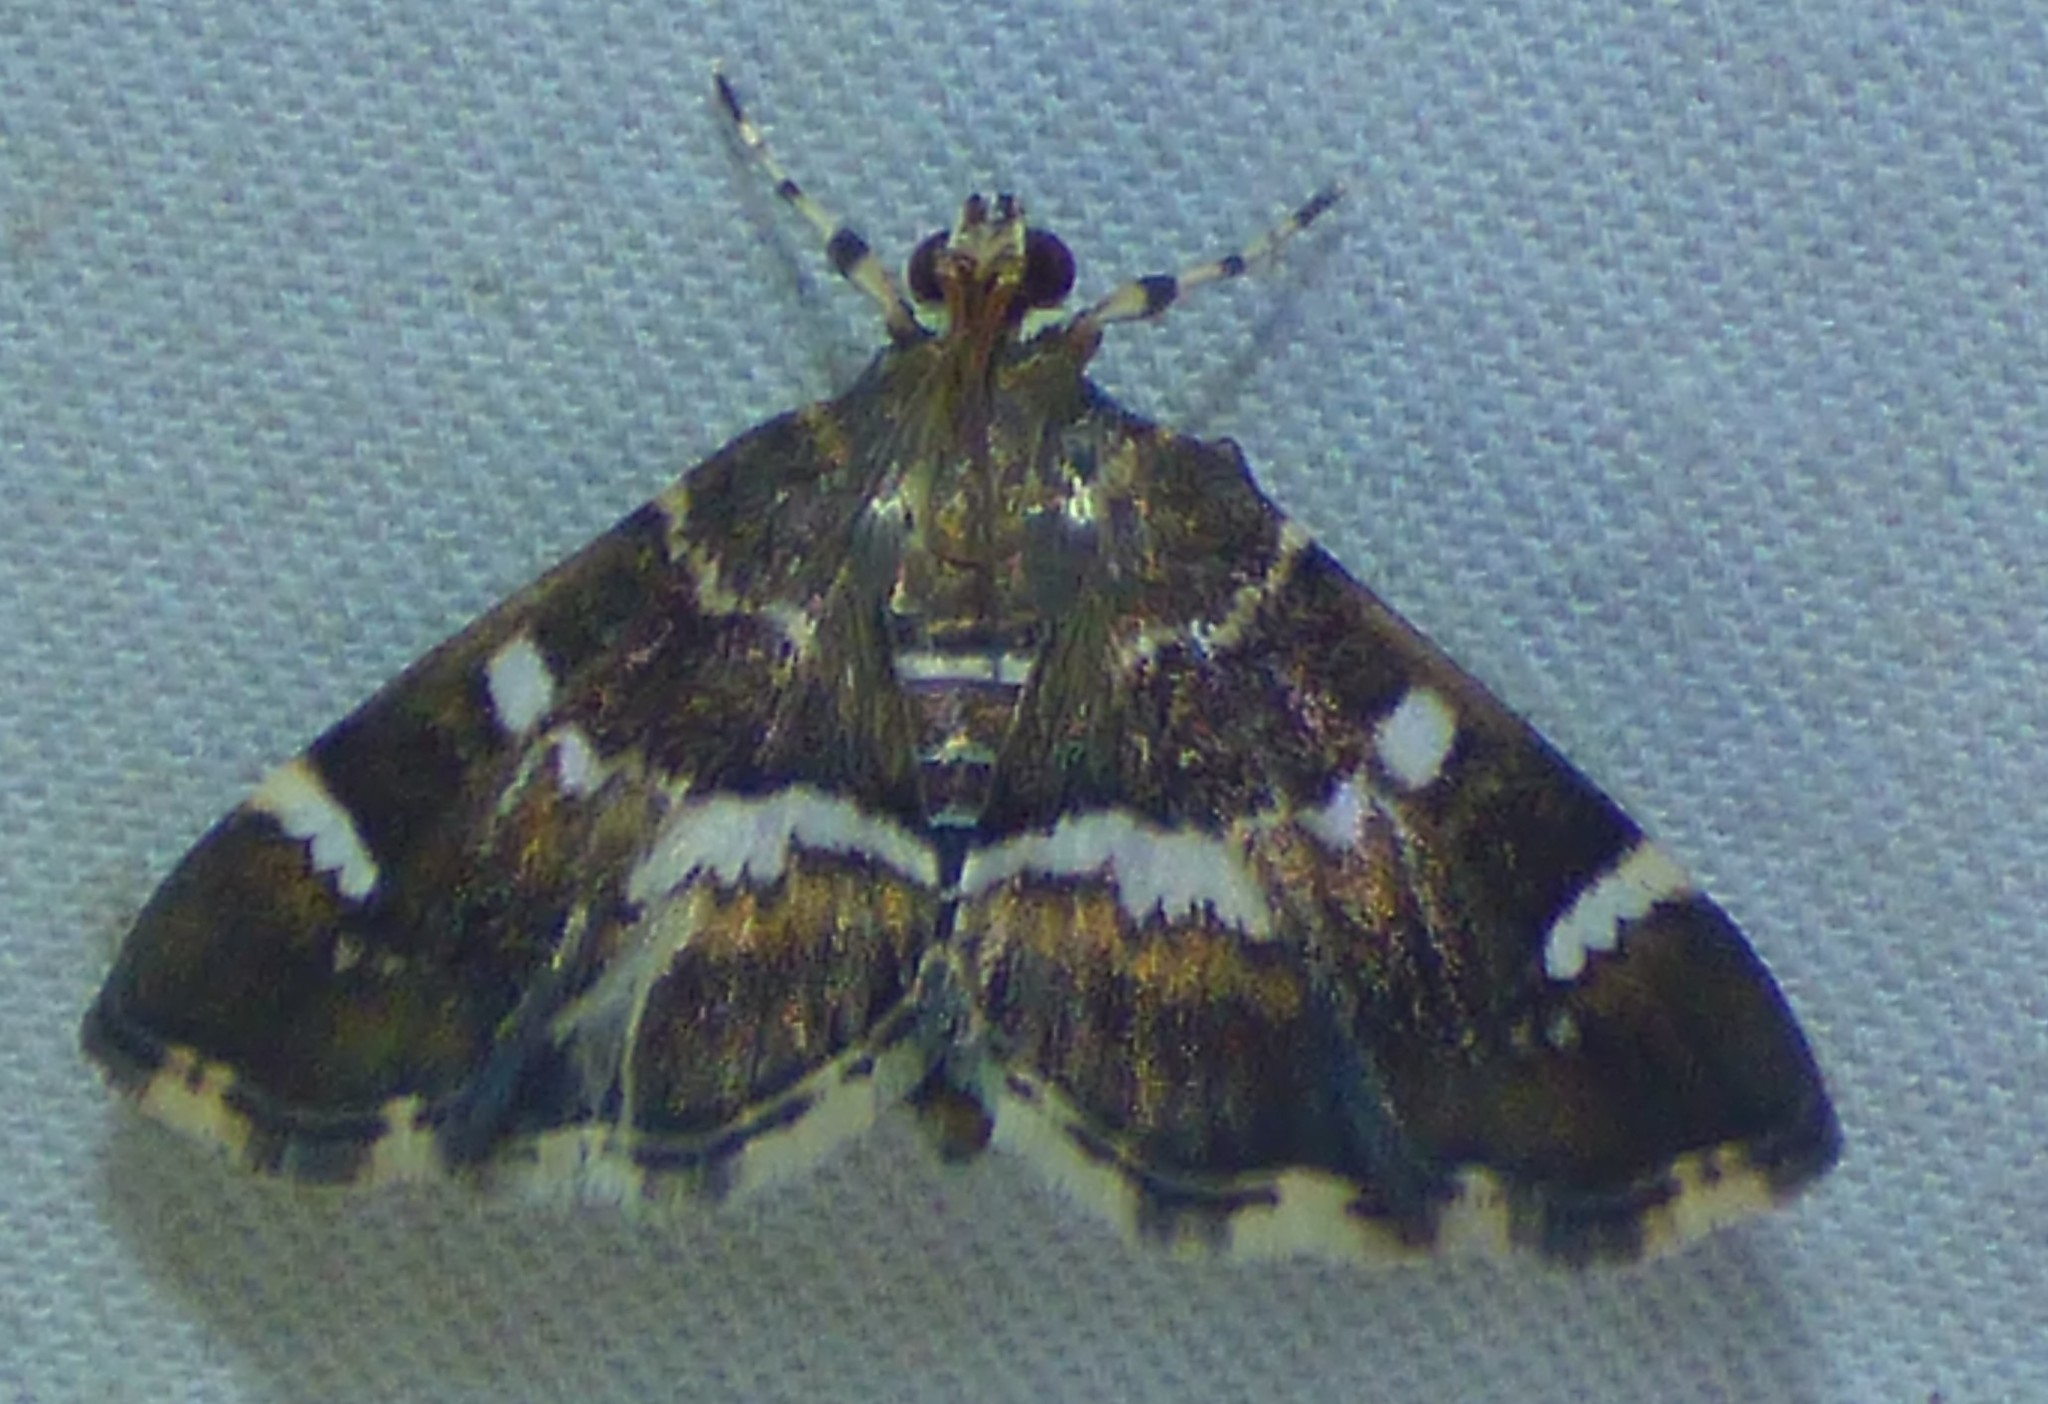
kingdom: Animalia
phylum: Arthropoda
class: Insecta
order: Lepidoptera
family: Crambidae
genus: Hymenia
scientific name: Hymenia perspectalis
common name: Spotted beet webworm
